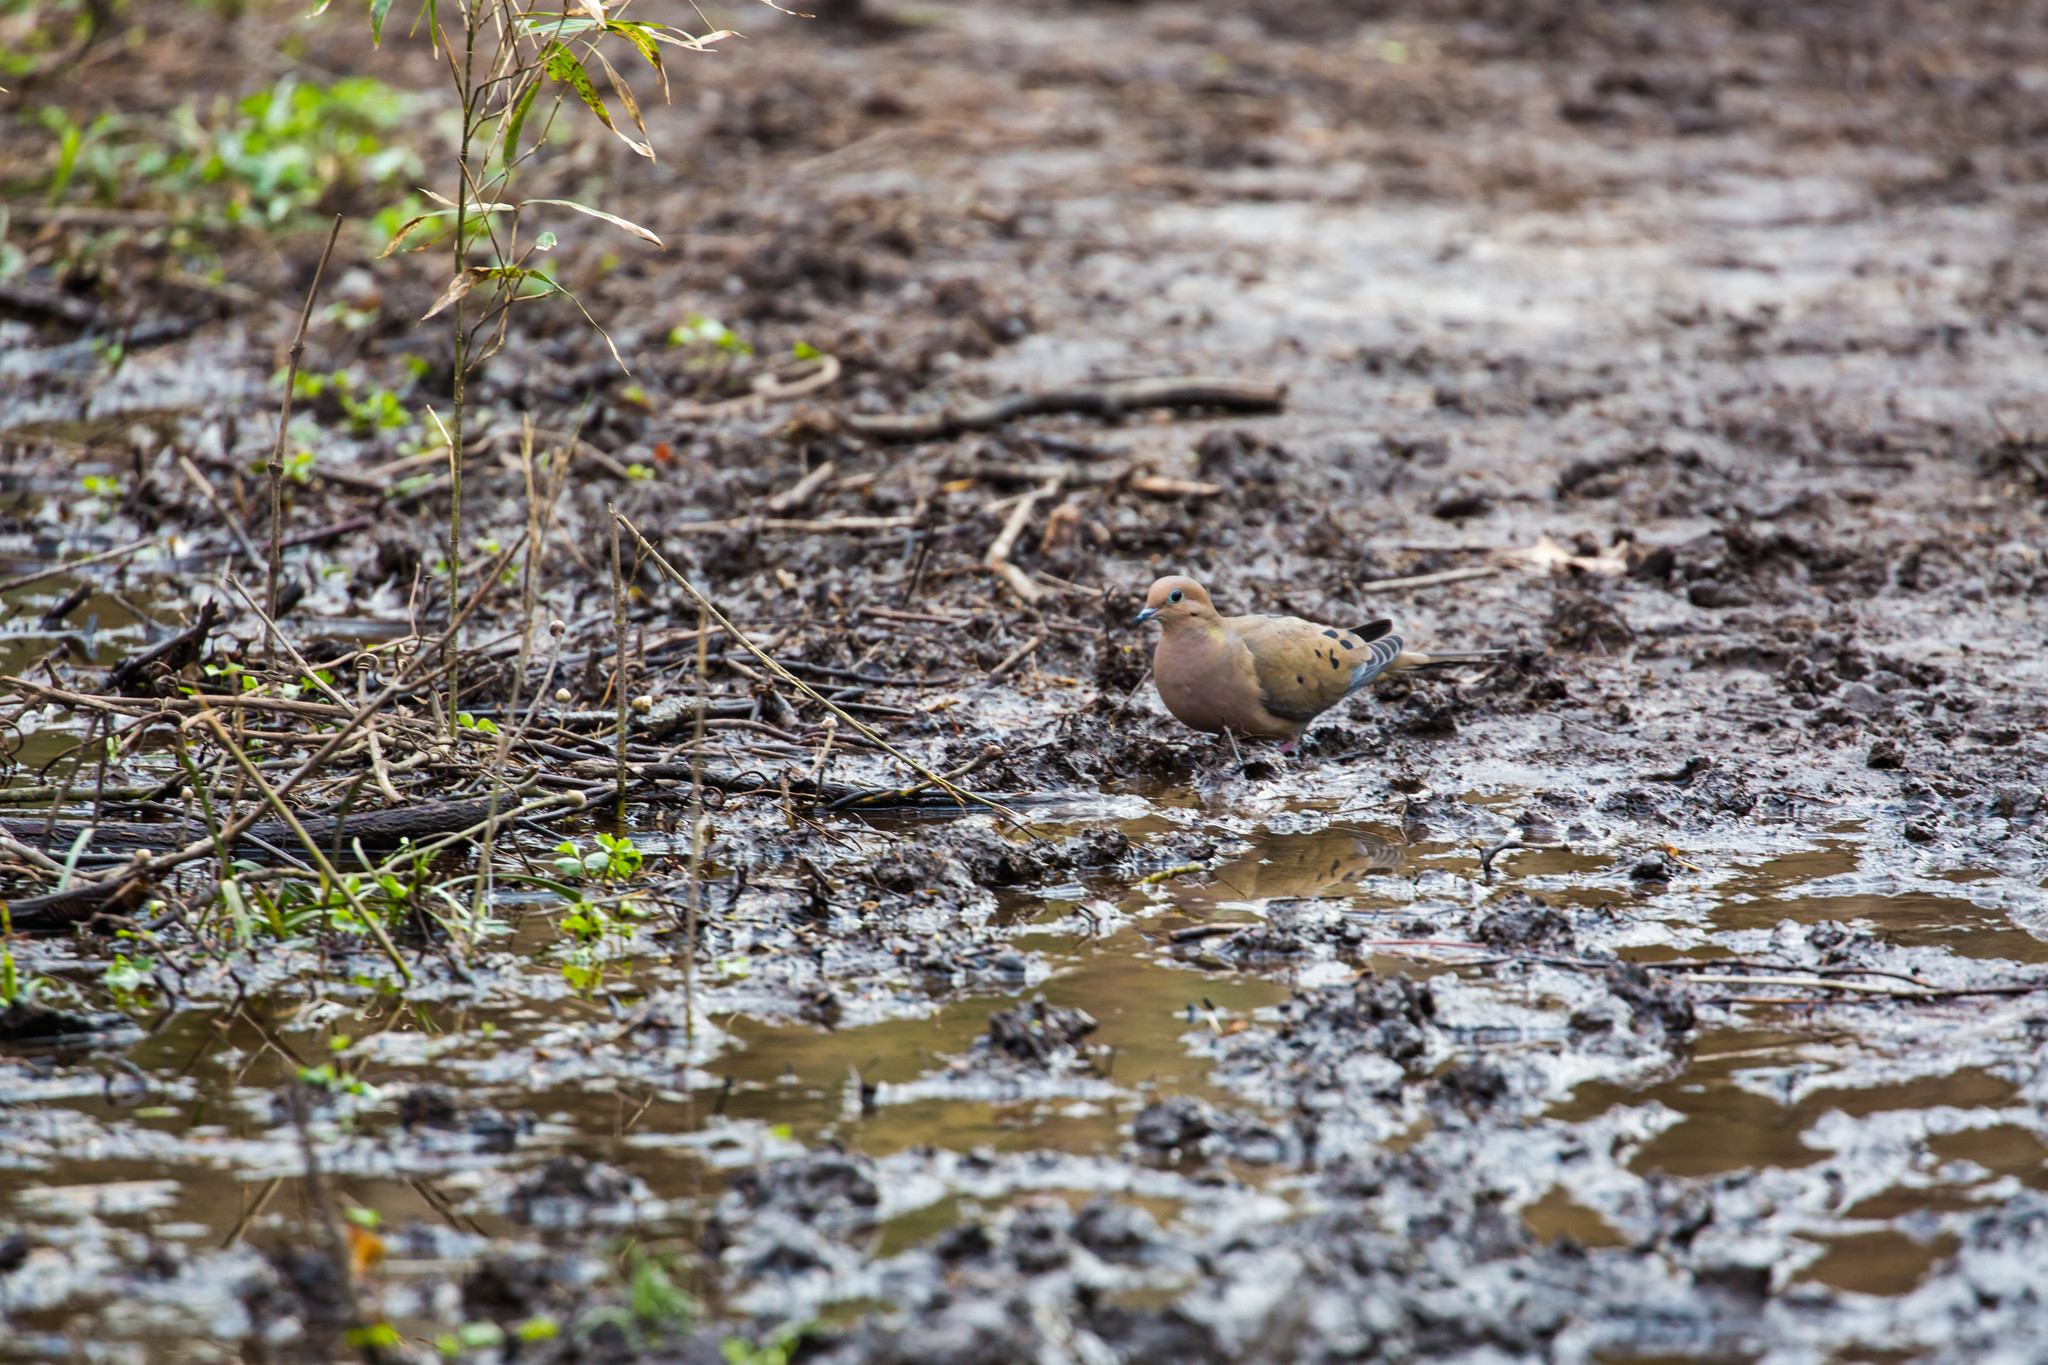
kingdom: Animalia
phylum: Chordata
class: Aves
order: Columbiformes
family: Columbidae
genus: Zenaida
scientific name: Zenaida macroura
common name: Mourning dove
